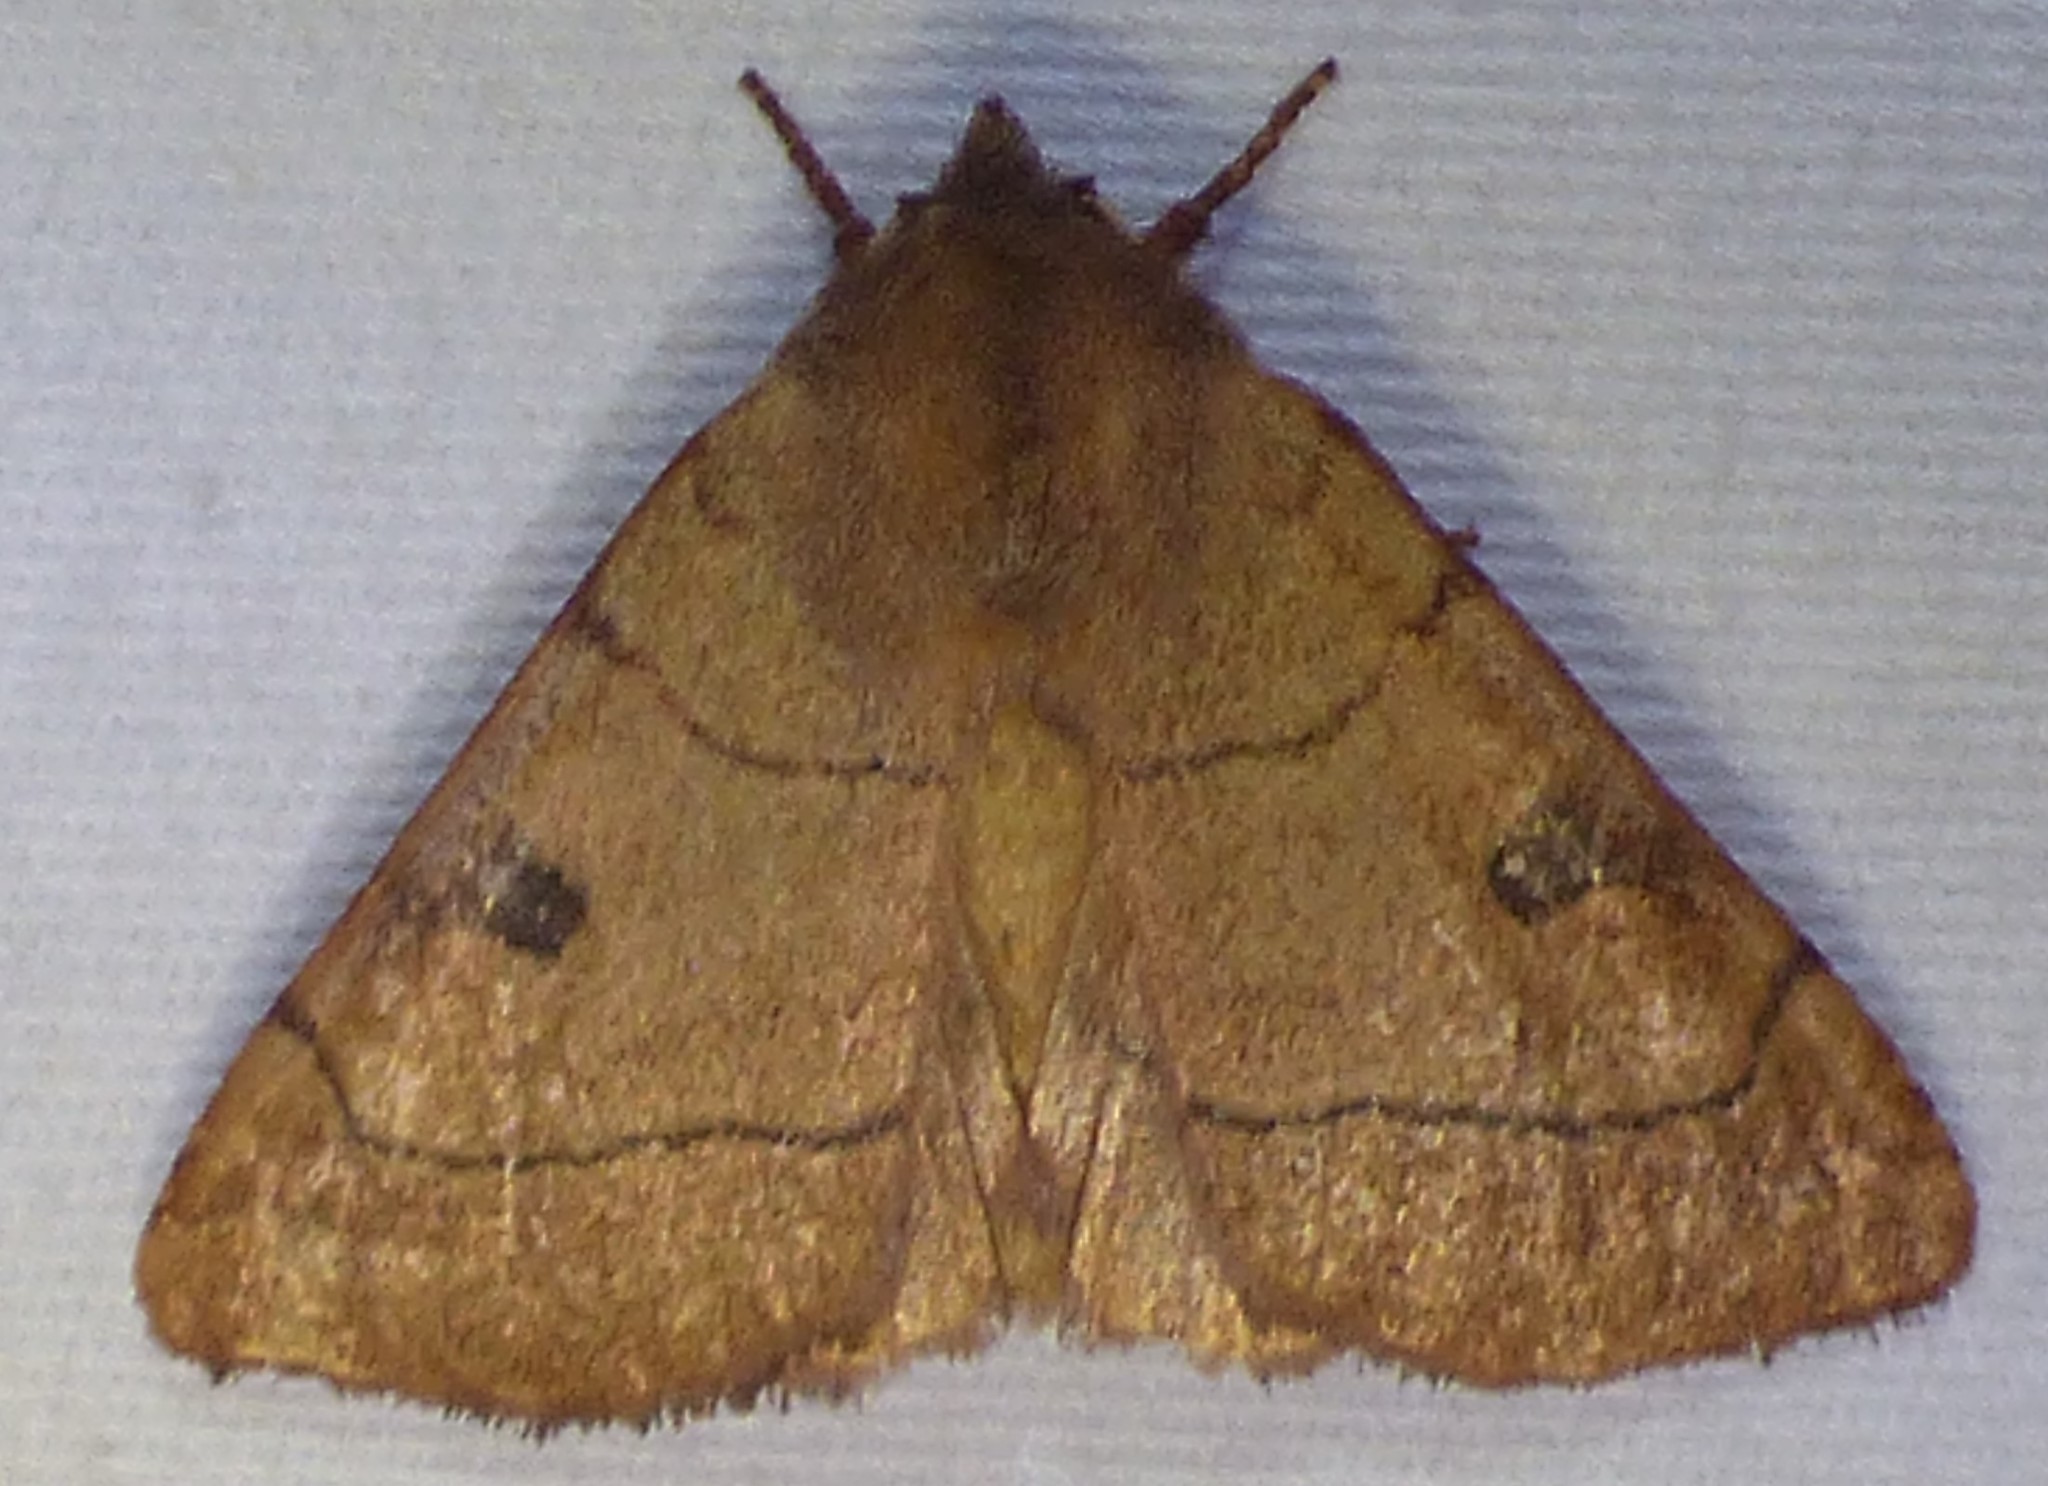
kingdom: Animalia
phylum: Arthropoda
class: Insecta
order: Lepidoptera
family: Noctuidae
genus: Choephora
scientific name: Choephora fungorum
